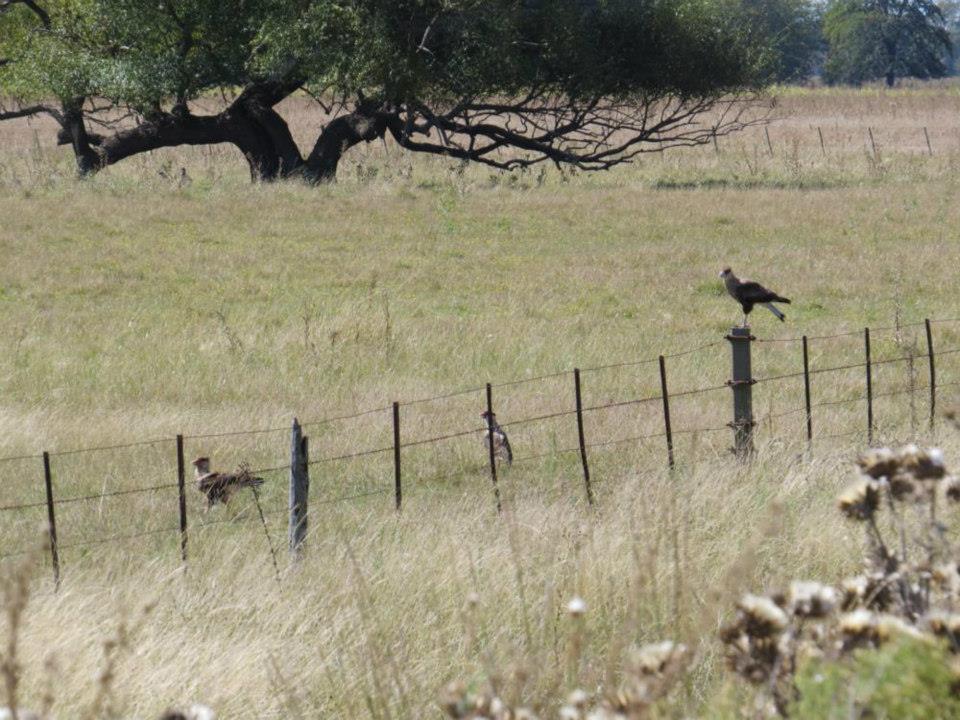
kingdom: Animalia
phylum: Chordata
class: Aves
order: Falconiformes
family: Falconidae
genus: Caracara
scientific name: Caracara plancus
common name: Southern caracara
